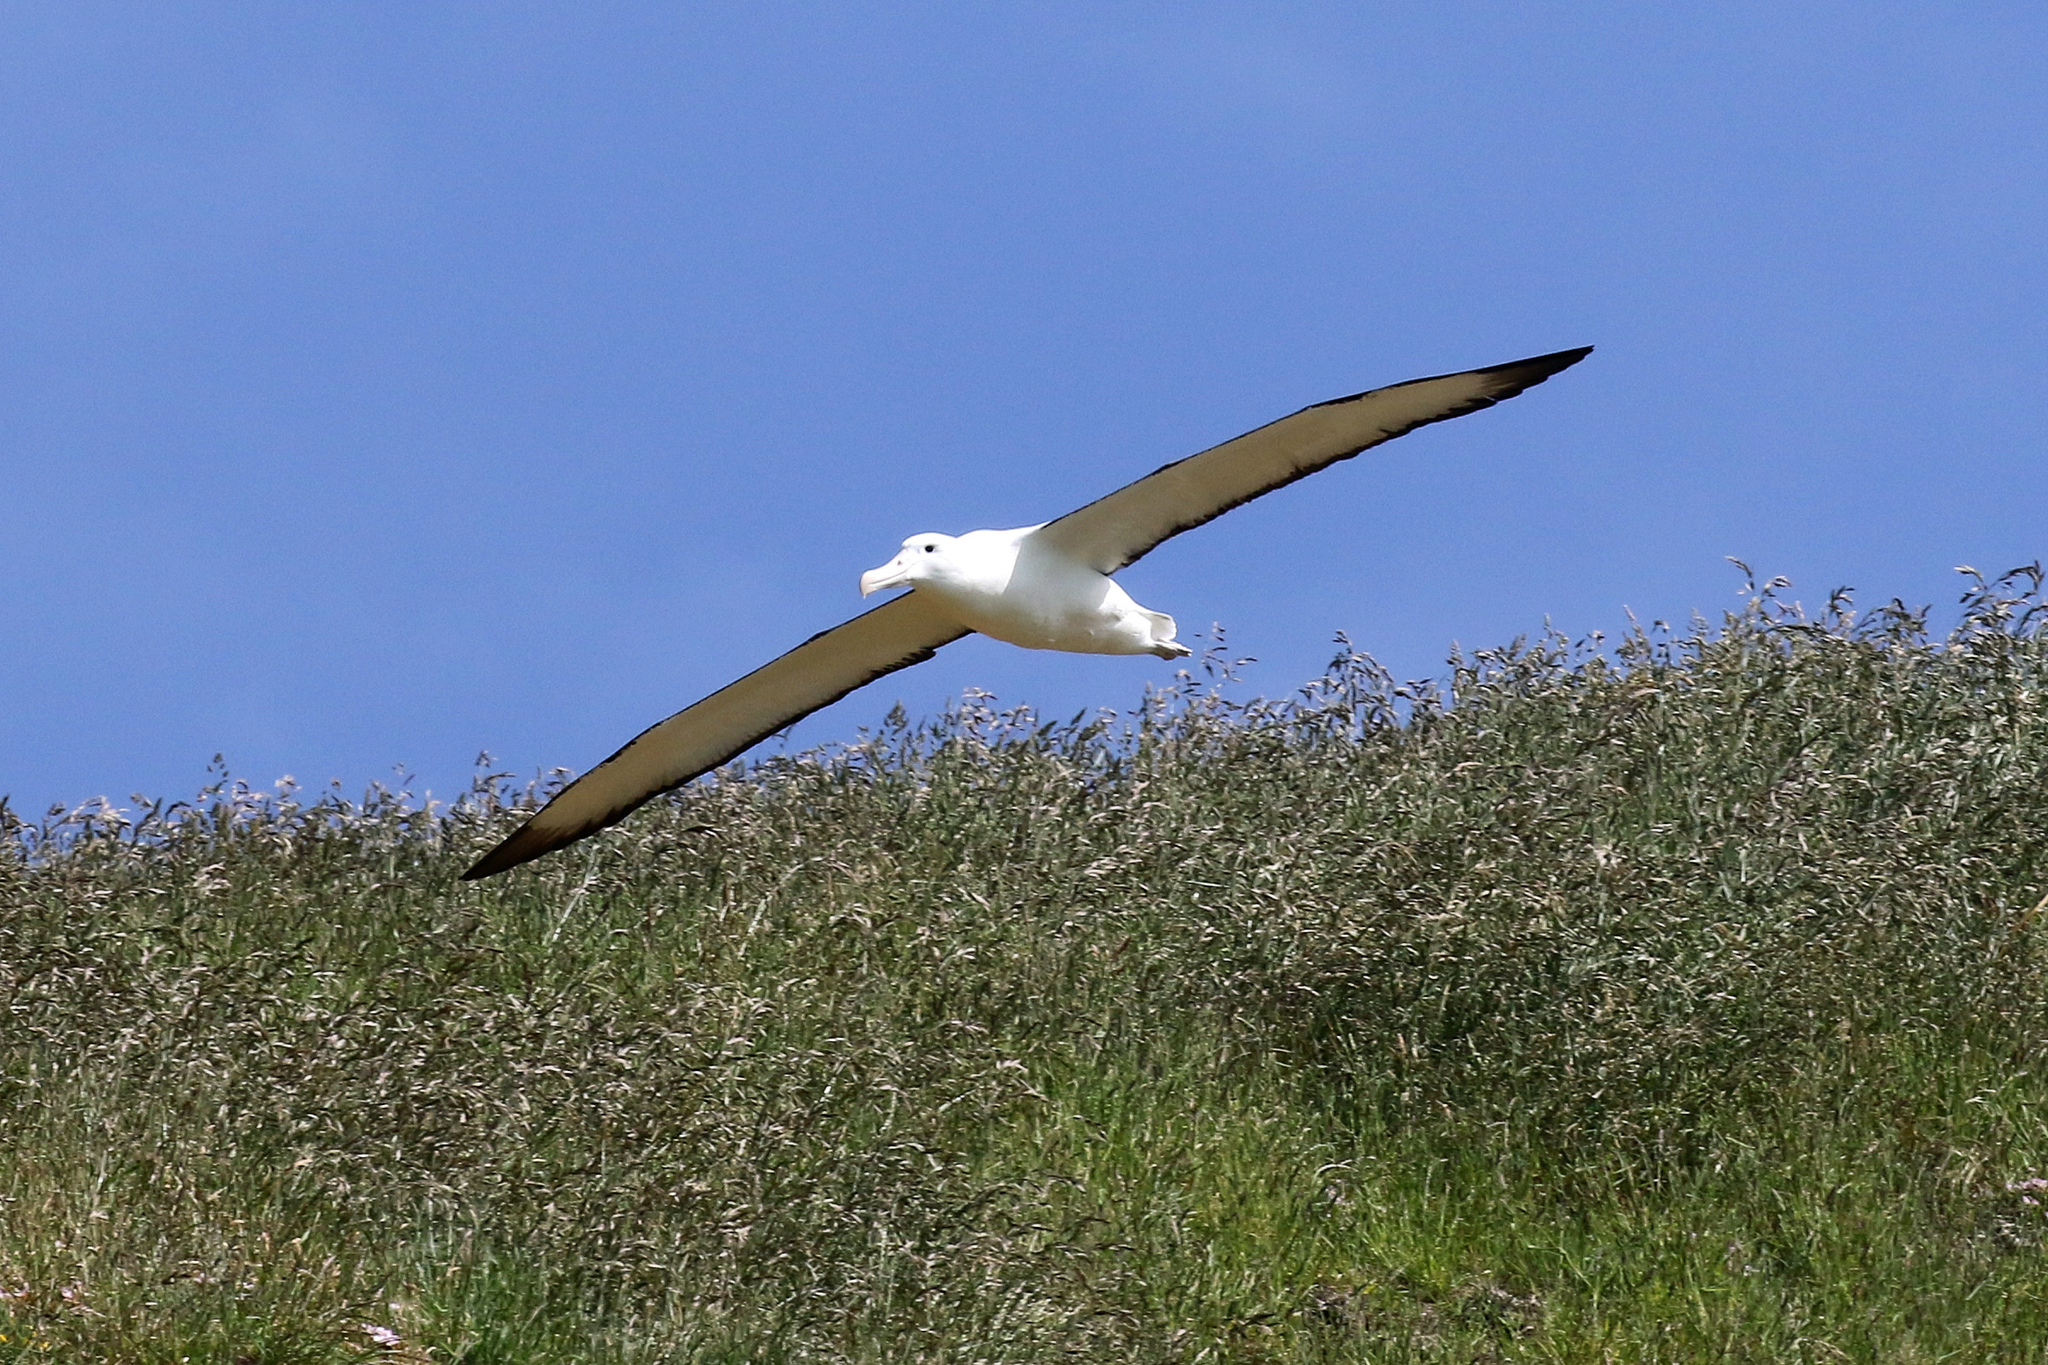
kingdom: Animalia
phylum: Chordata
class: Aves
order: Procellariiformes
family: Diomedeidae
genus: Diomedea
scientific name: Diomedea sanfordi
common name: Northern royal albatross
